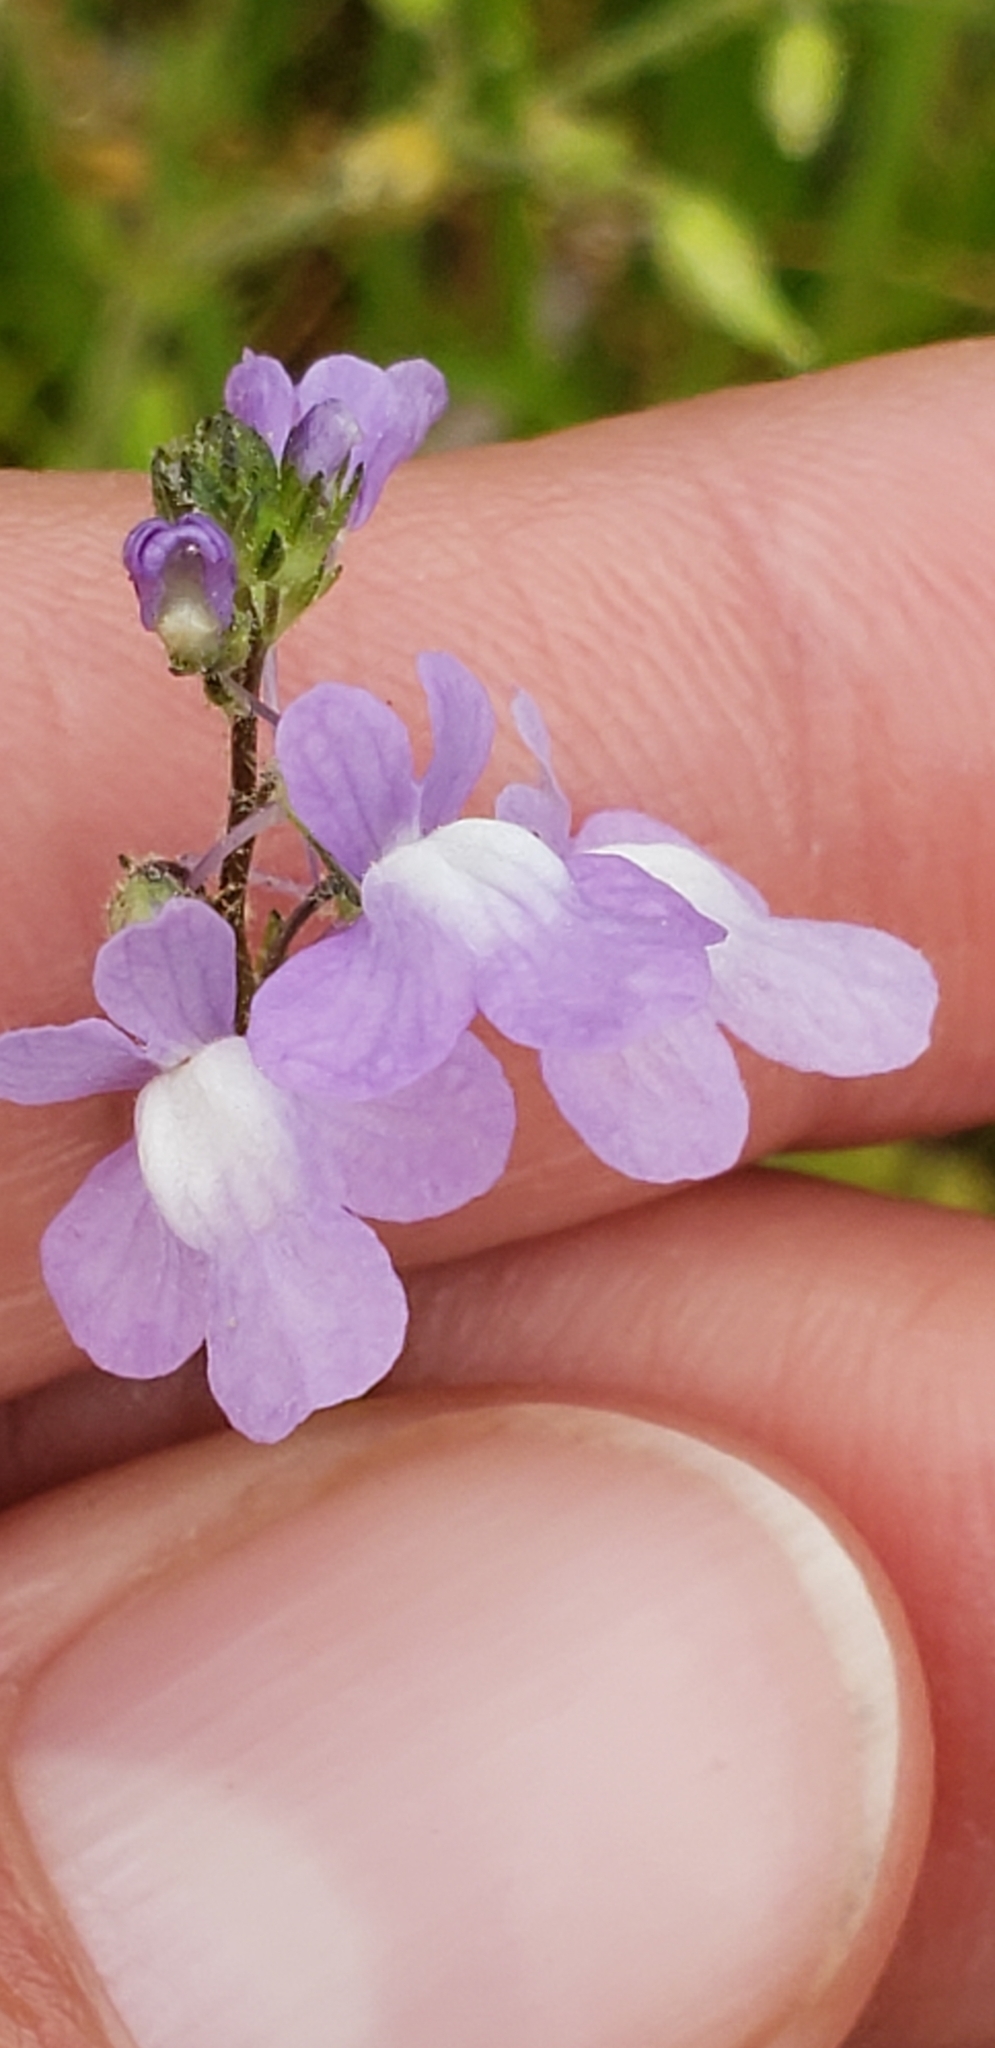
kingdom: Plantae
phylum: Tracheophyta
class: Magnoliopsida
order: Lamiales
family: Plantaginaceae
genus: Nuttallanthus
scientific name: Nuttallanthus canadensis
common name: Blue toadflax
